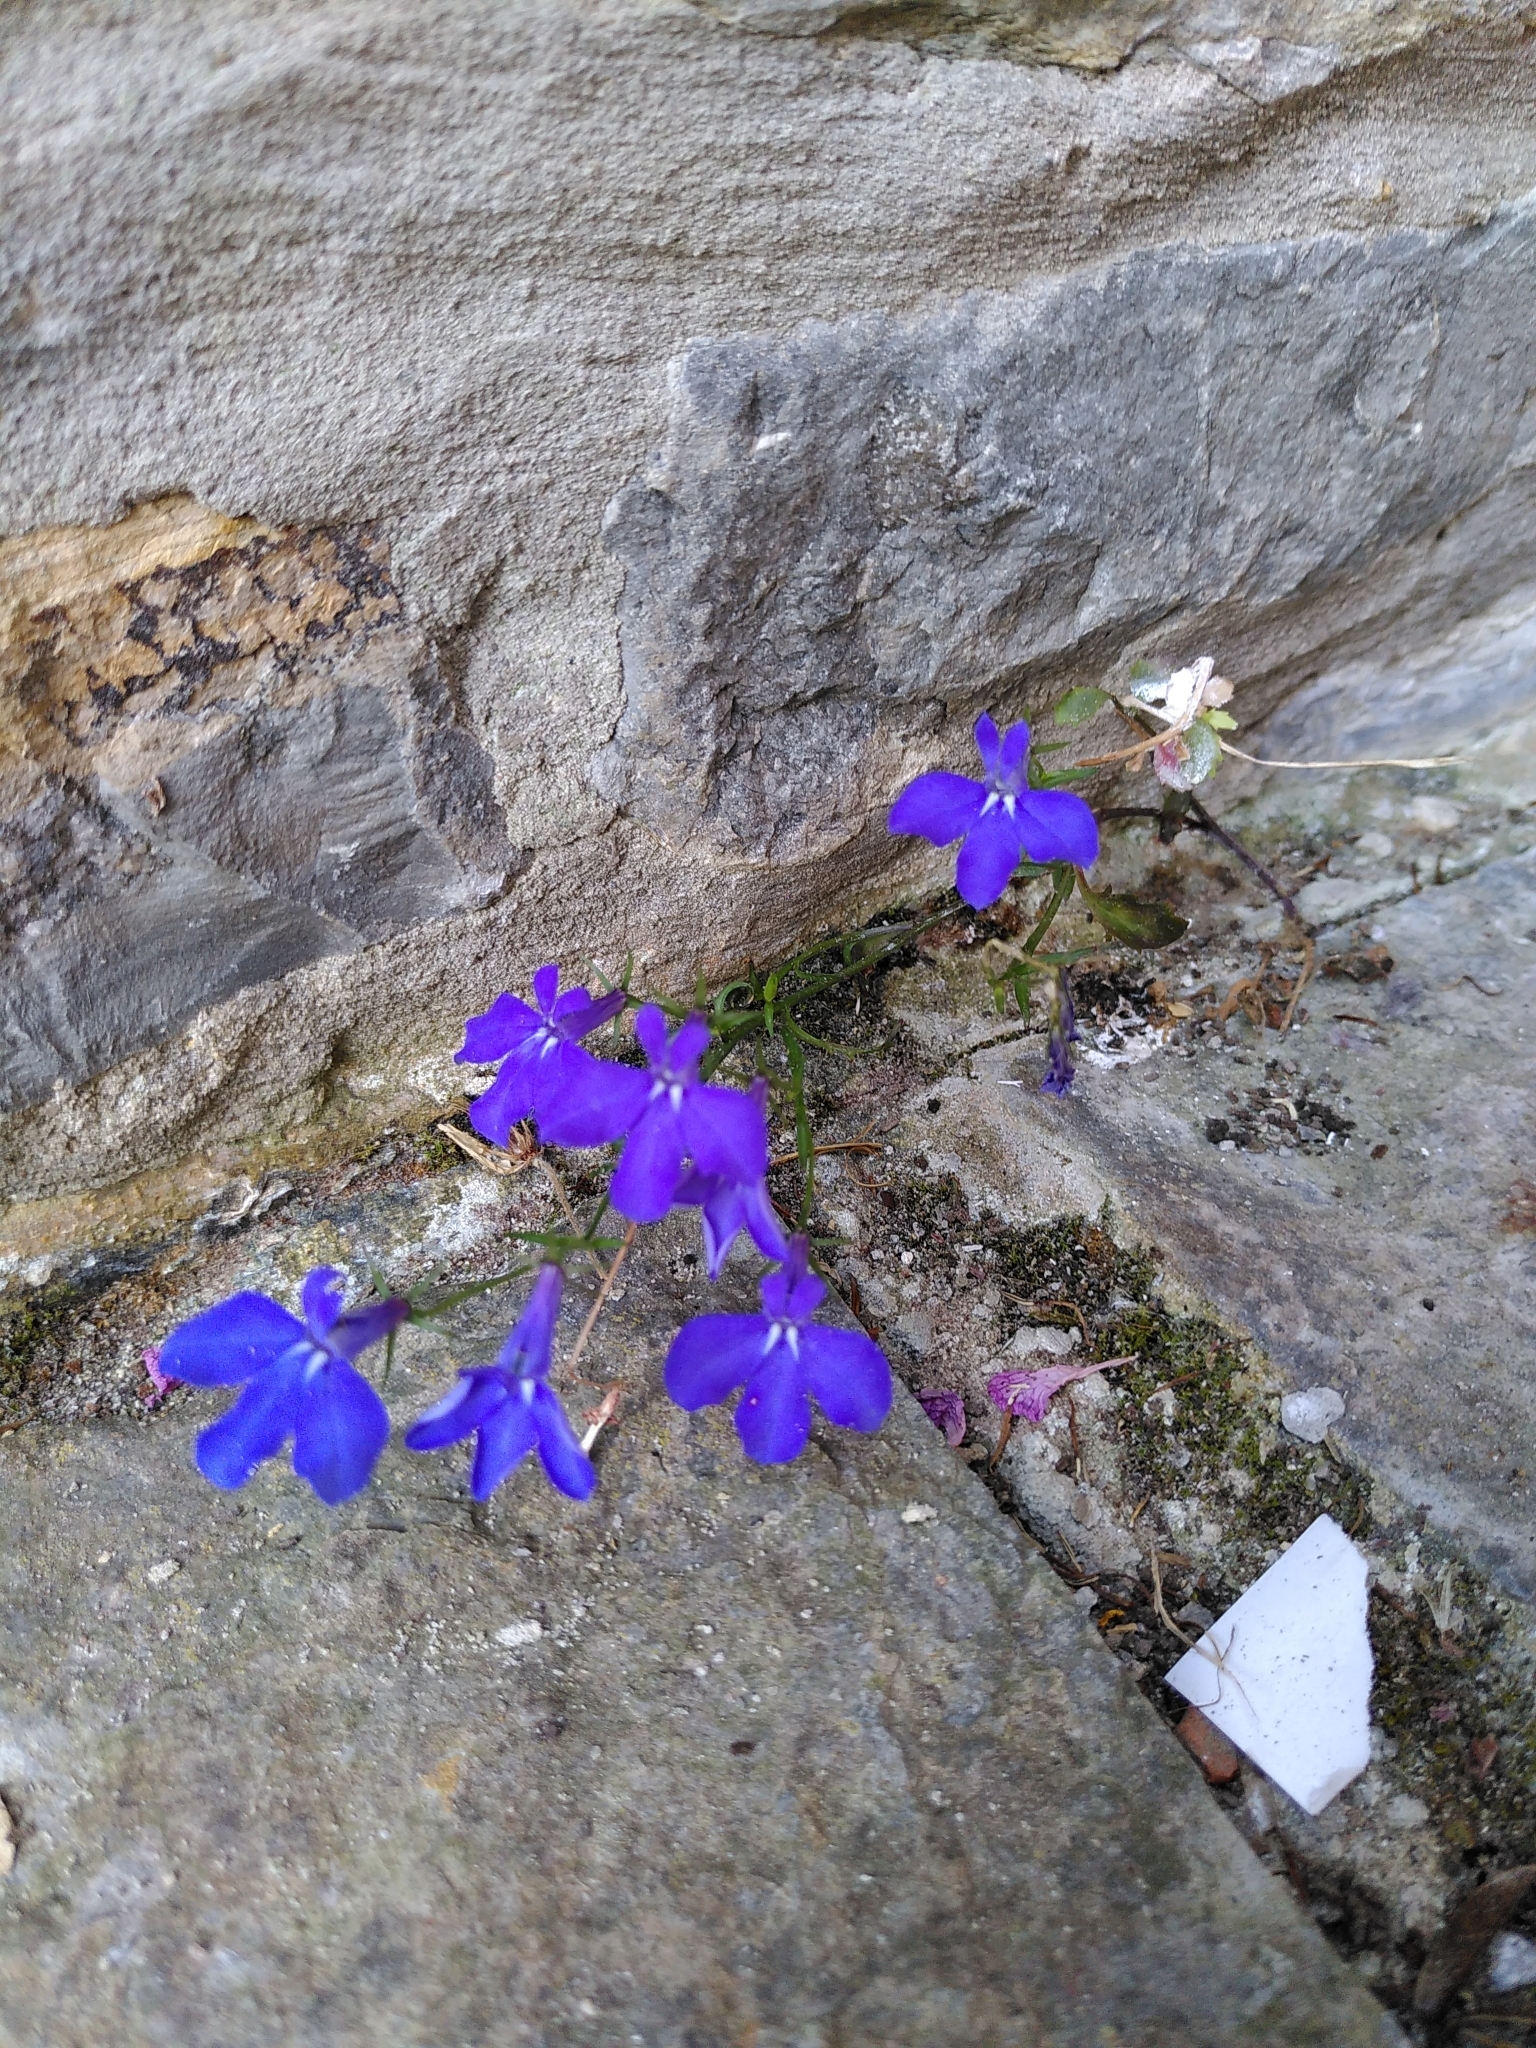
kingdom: Plantae
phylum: Tracheophyta
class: Magnoliopsida
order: Asterales
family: Campanulaceae
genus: Lobelia
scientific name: Lobelia erinus
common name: Edging lobelia
